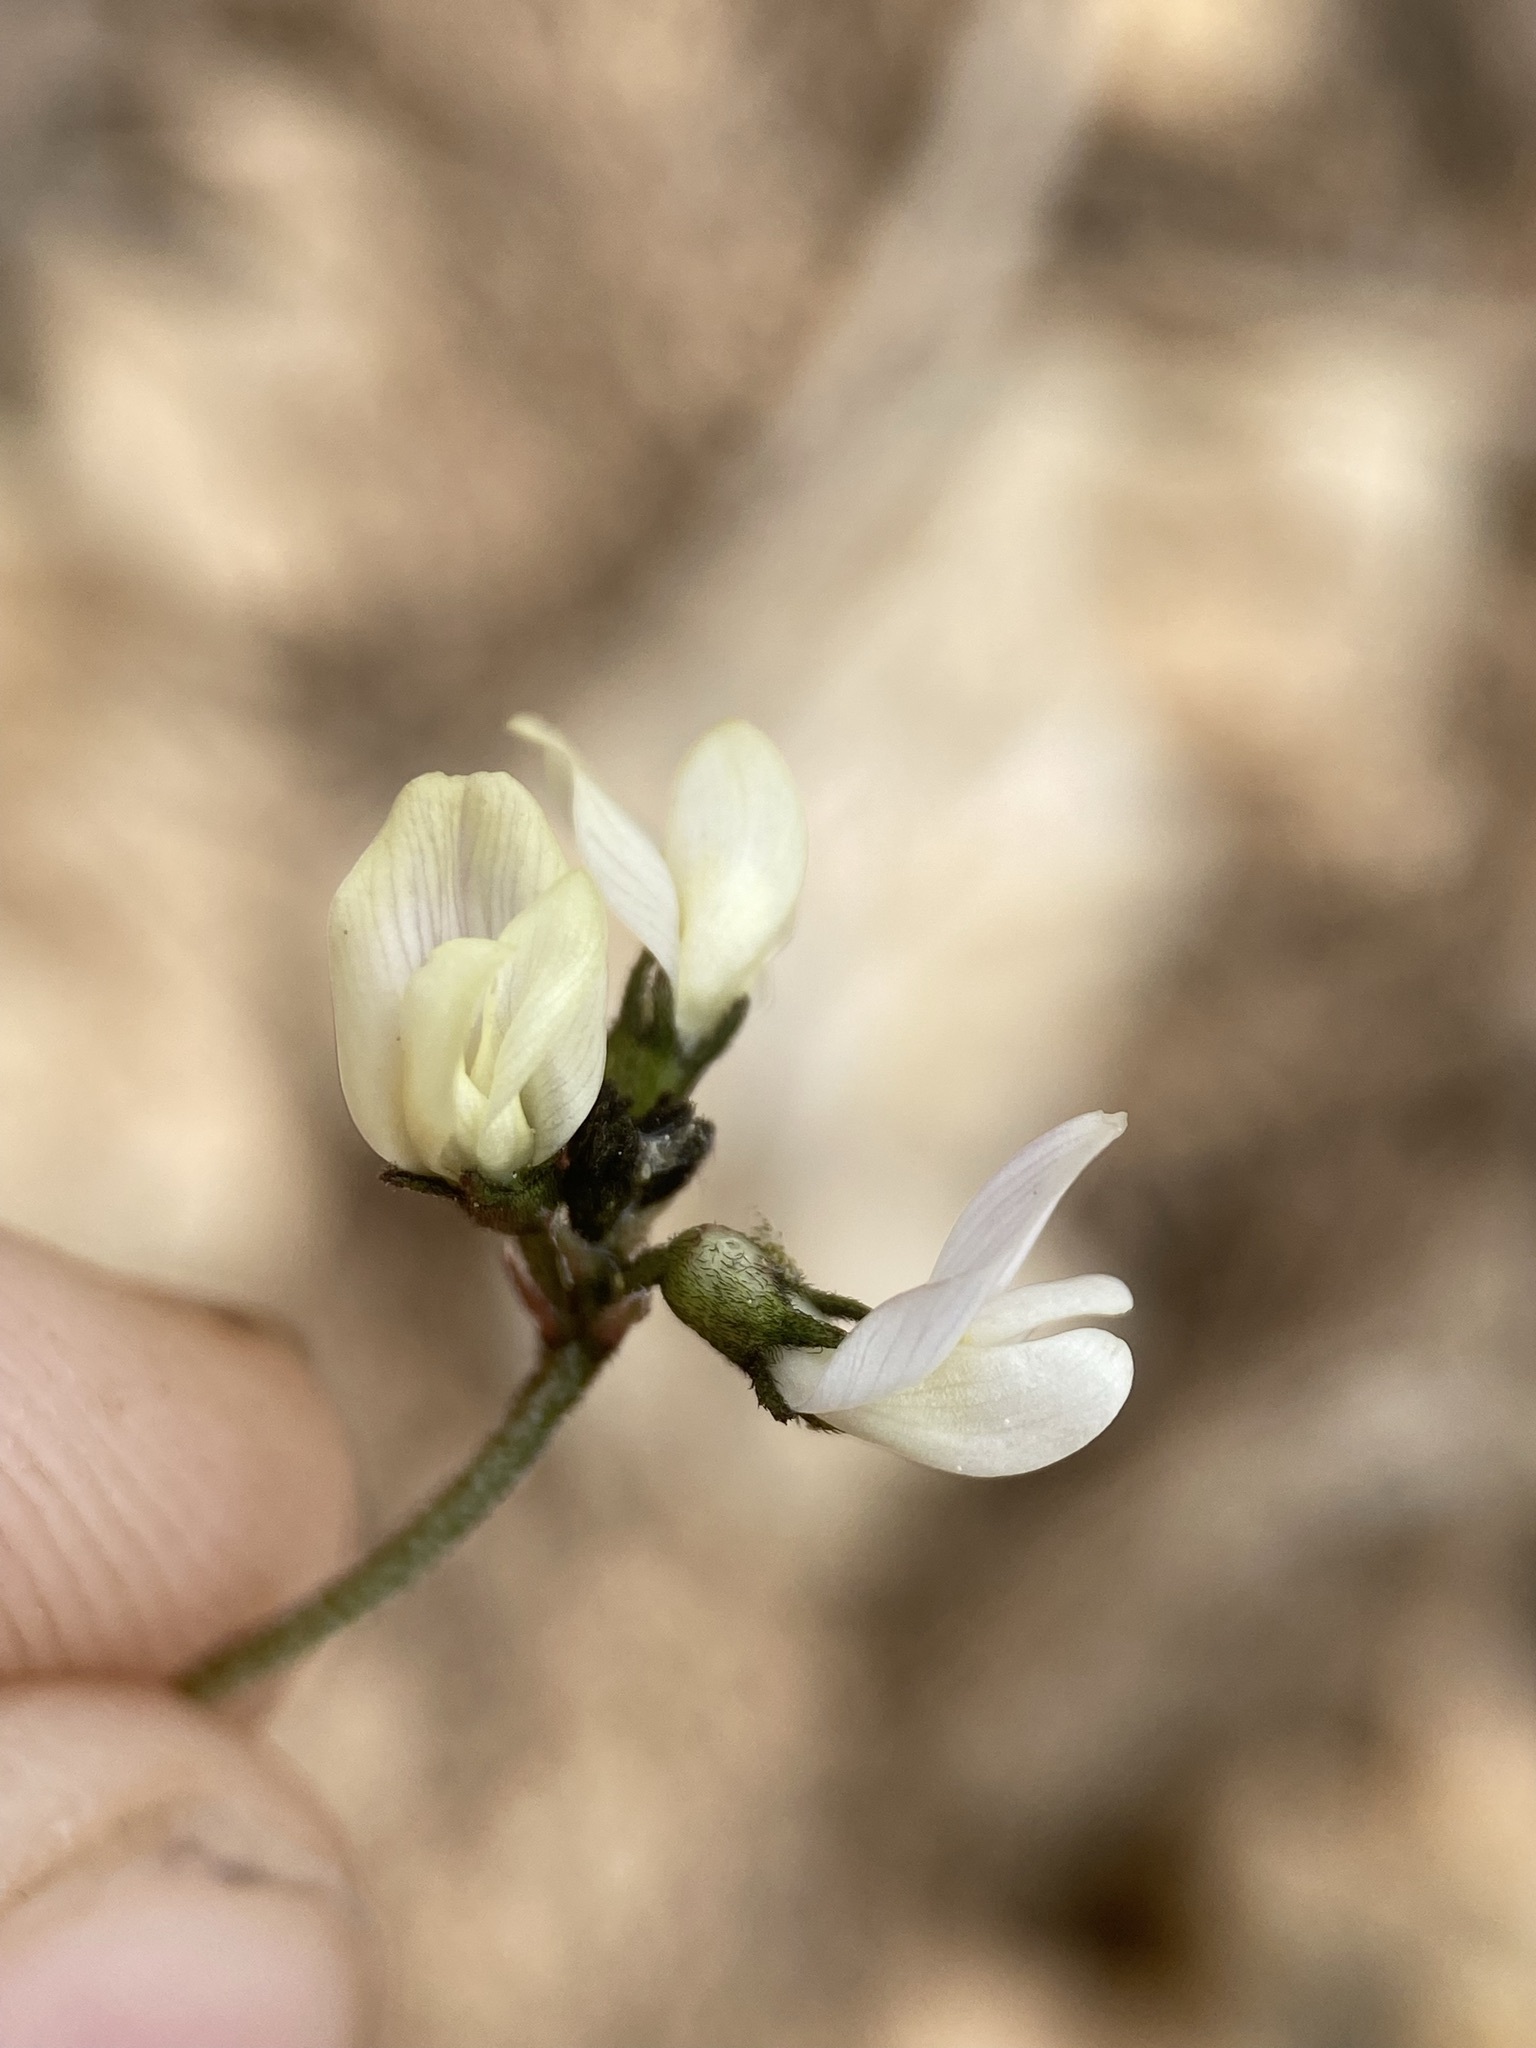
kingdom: Plantae
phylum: Tracheophyta
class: Magnoliopsida
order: Fabales
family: Fabaceae
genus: Astragalus
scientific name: Astragalus limnocharis
